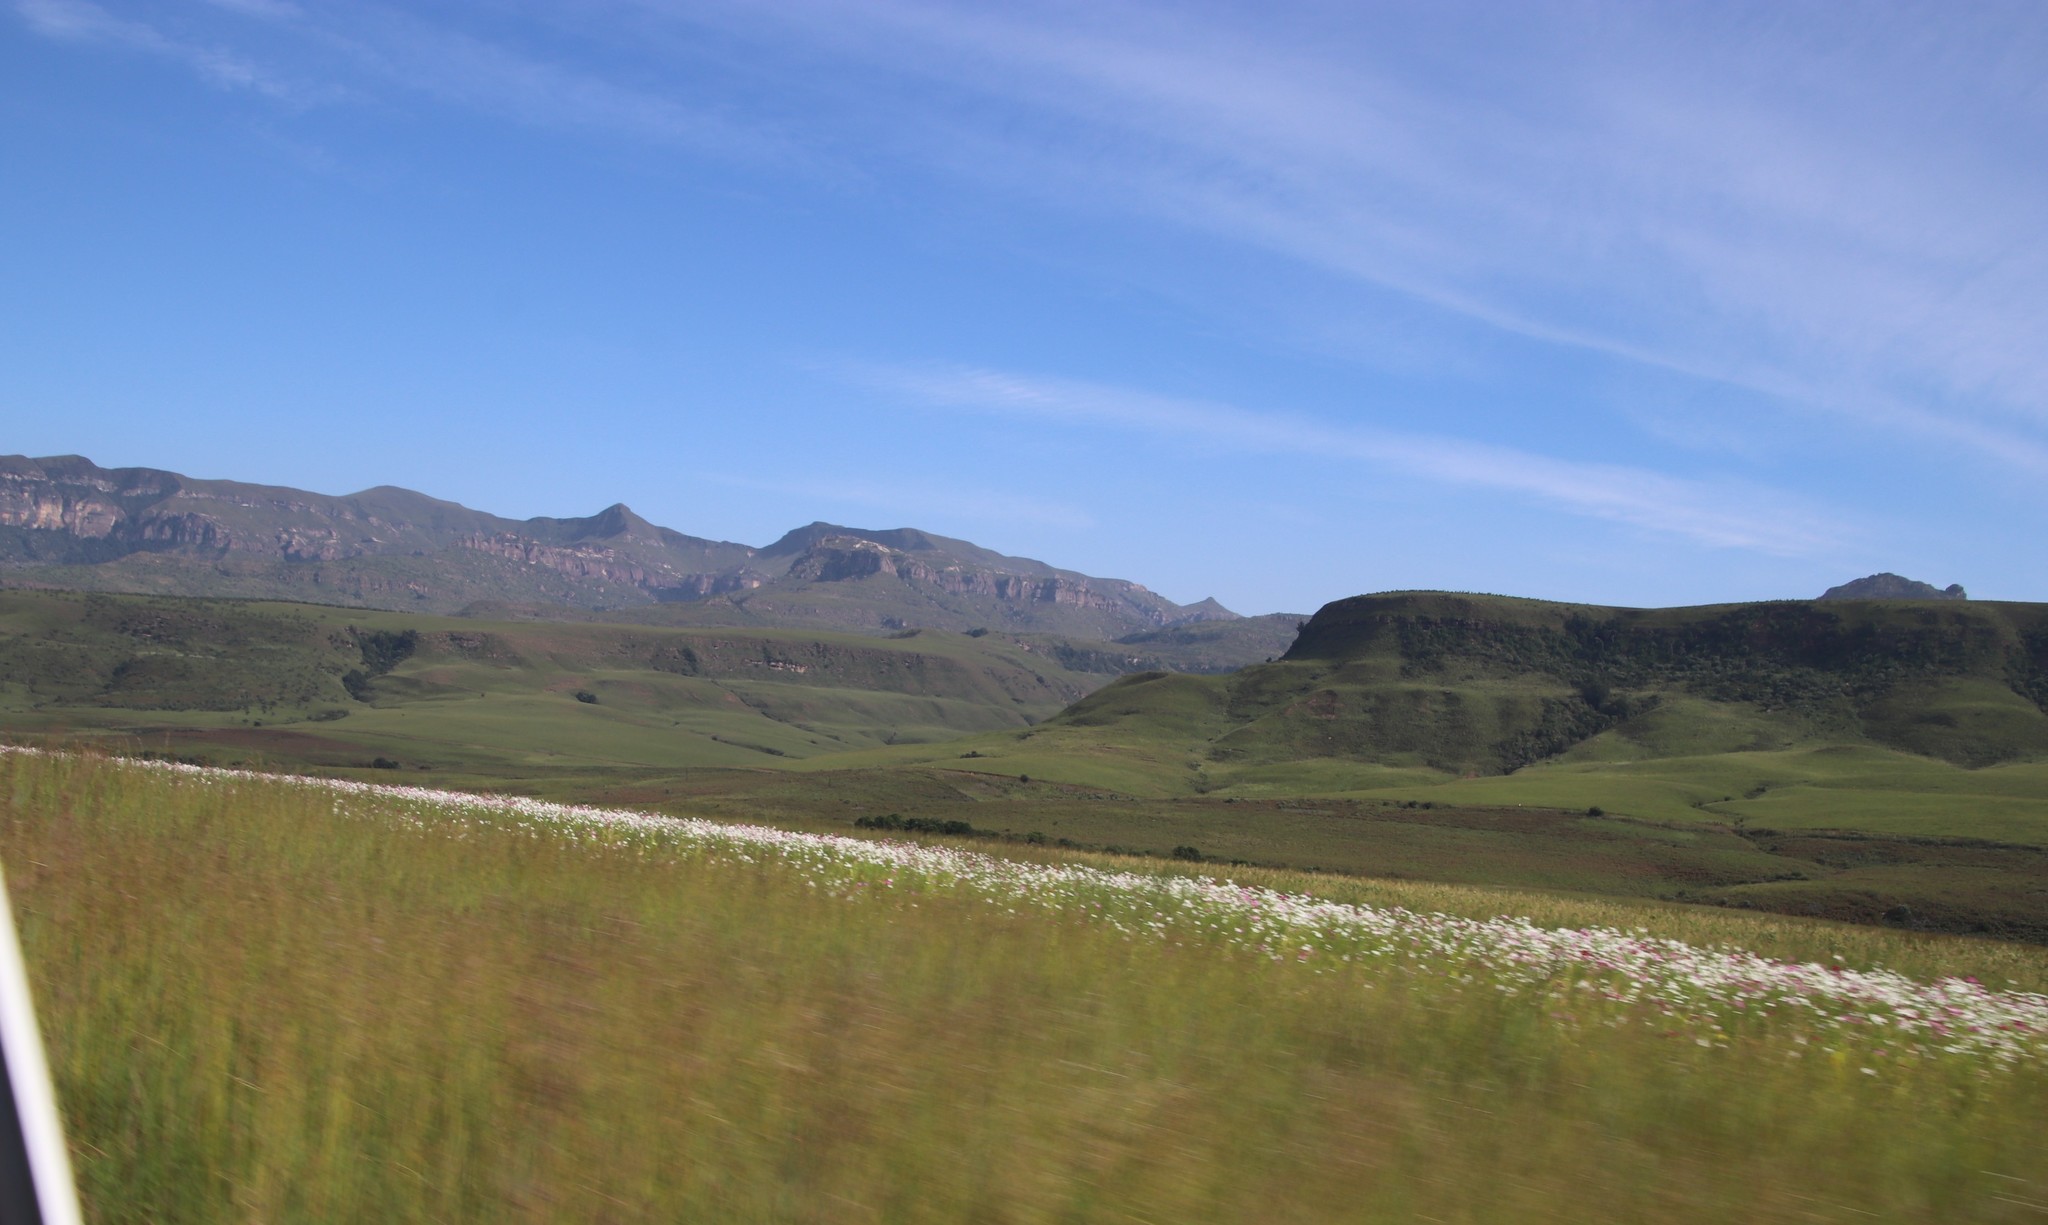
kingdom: Plantae
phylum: Tracheophyta
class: Magnoliopsida
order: Asterales
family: Asteraceae
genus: Cosmos
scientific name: Cosmos bipinnatus
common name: Garden cosmos
